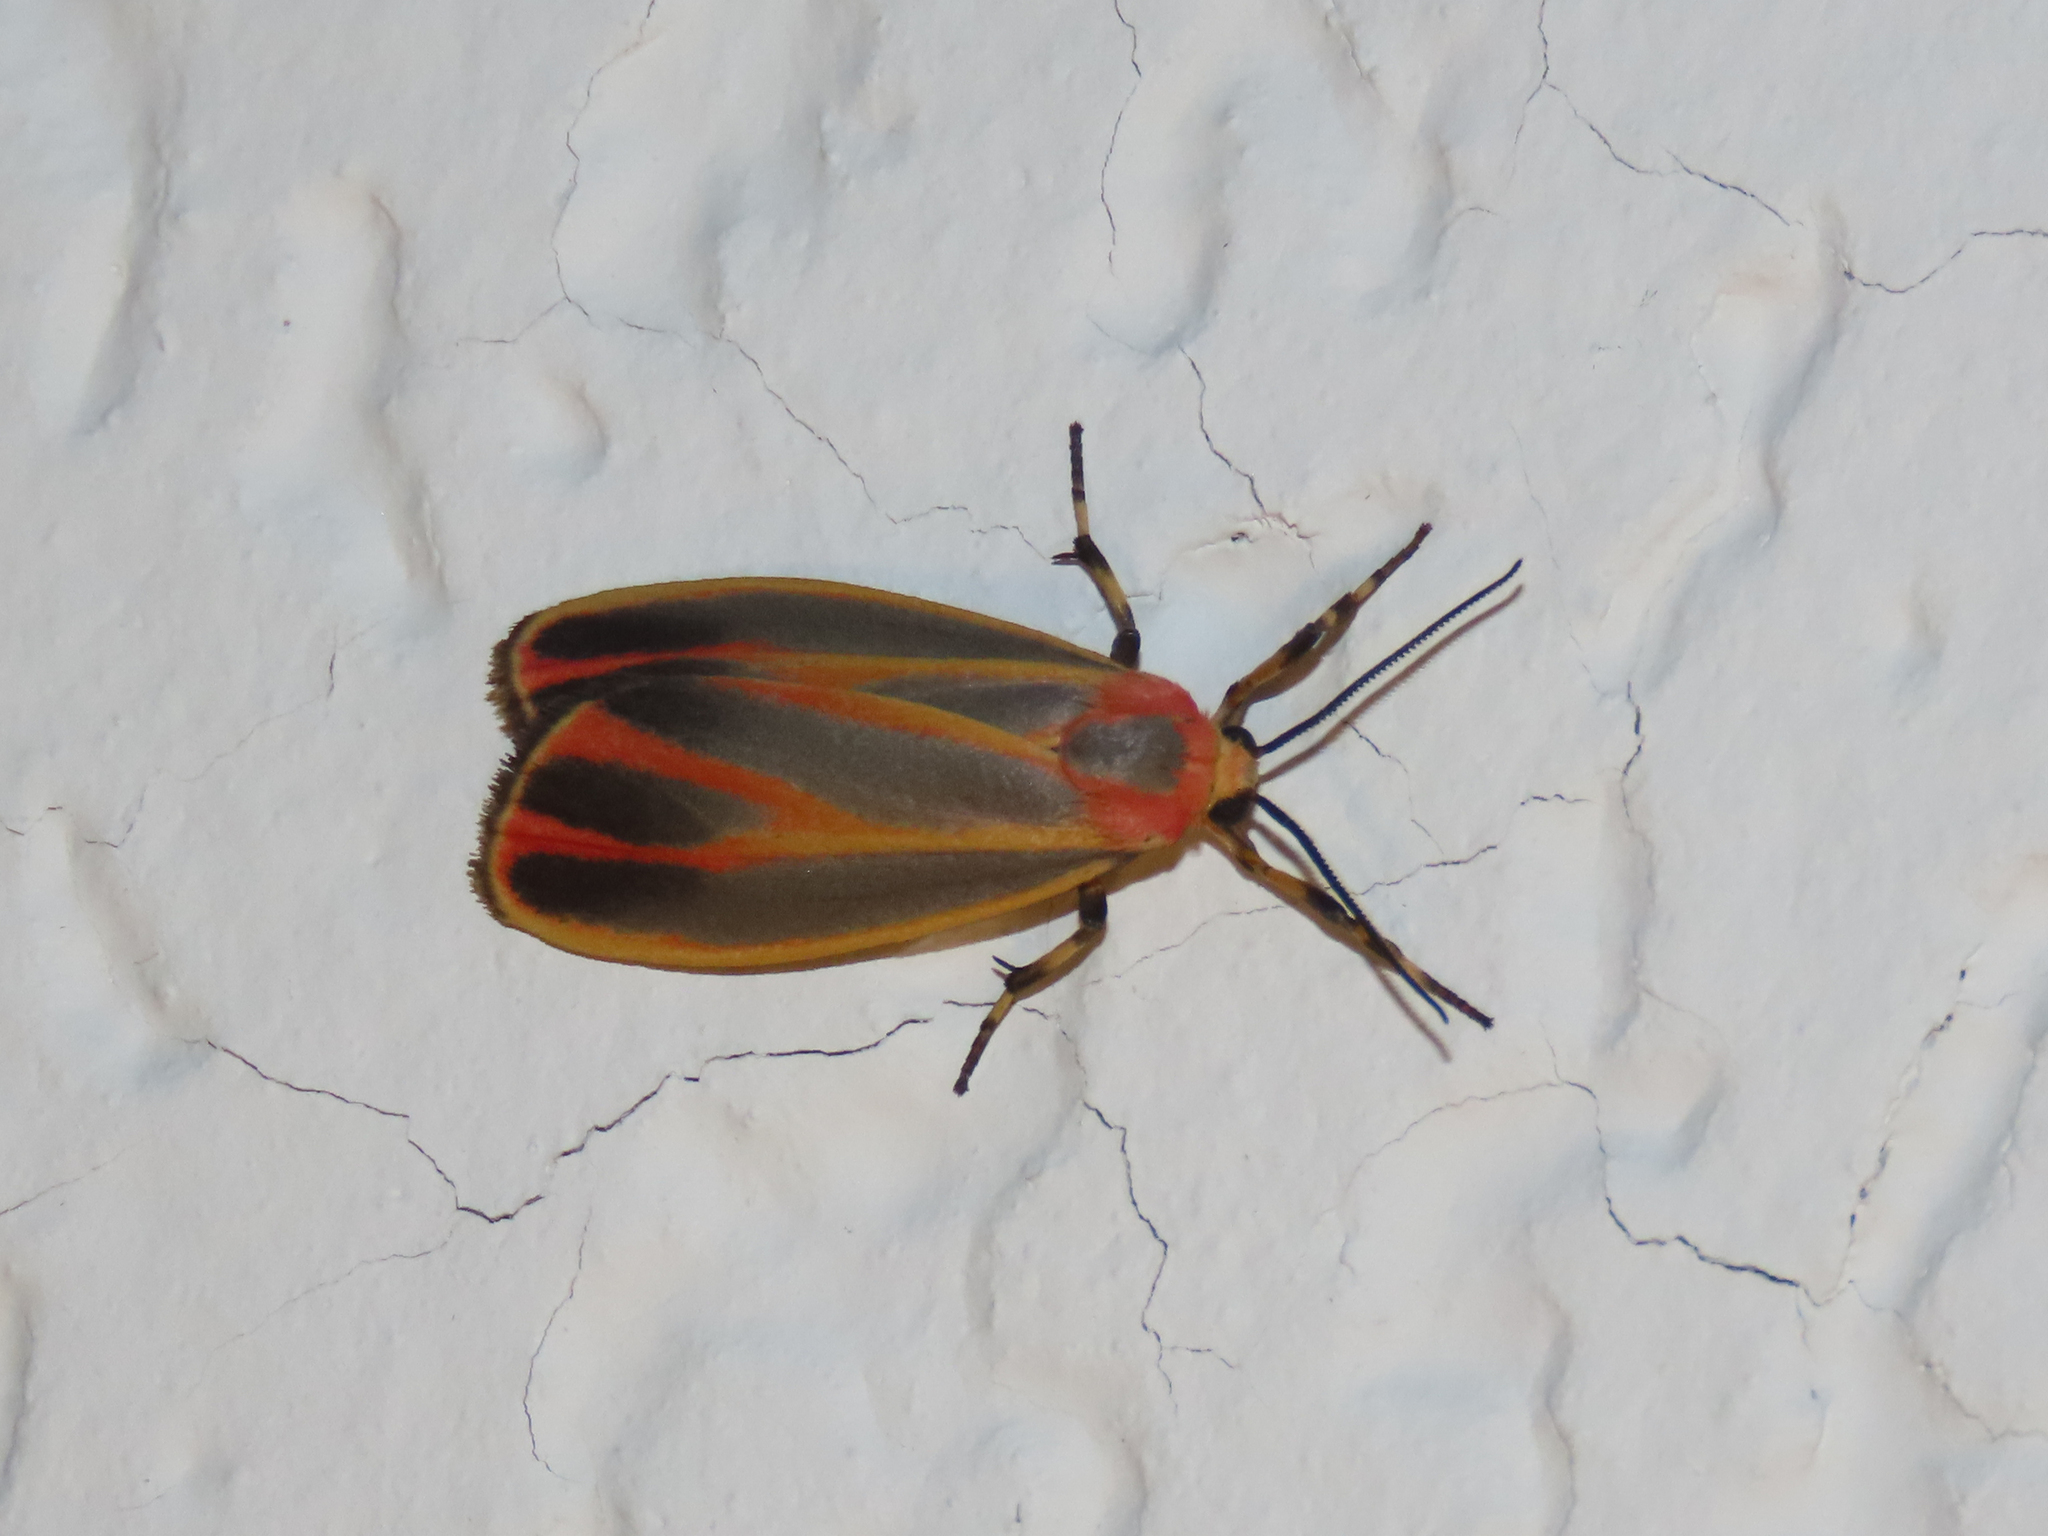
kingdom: Animalia
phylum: Arthropoda
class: Insecta
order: Lepidoptera
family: Erebidae
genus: Hypoprepia
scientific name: Hypoprepia fucosa
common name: Painted lichen moth
